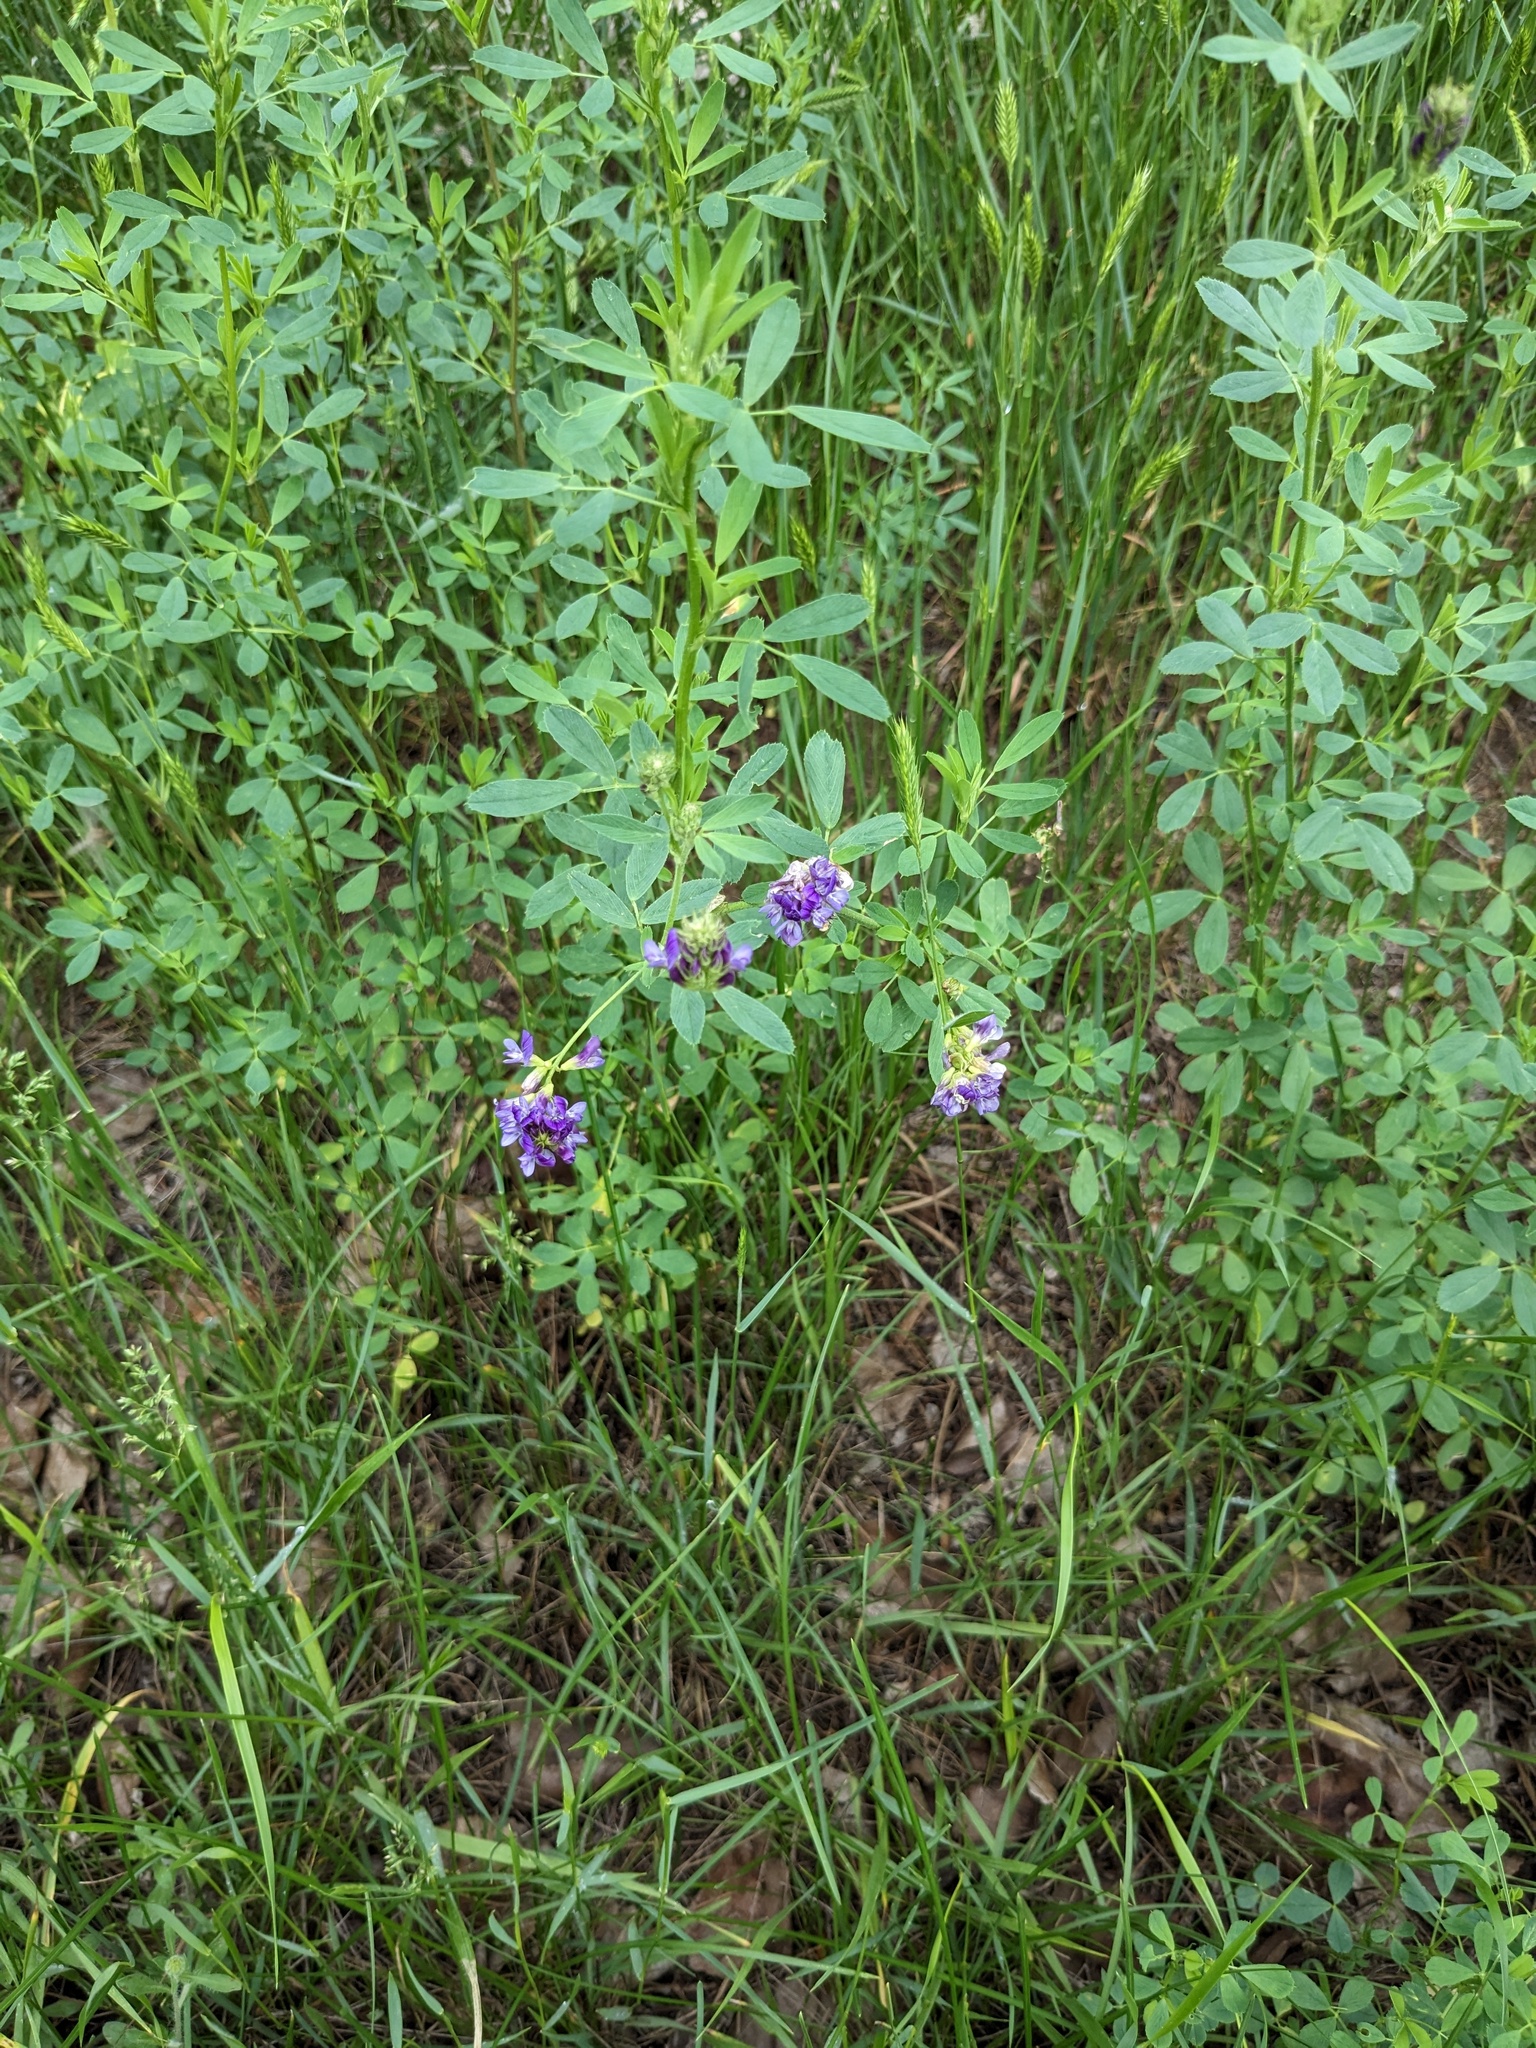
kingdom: Plantae
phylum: Tracheophyta
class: Magnoliopsida
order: Fabales
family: Fabaceae
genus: Medicago
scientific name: Medicago sativa
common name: Alfalfa
